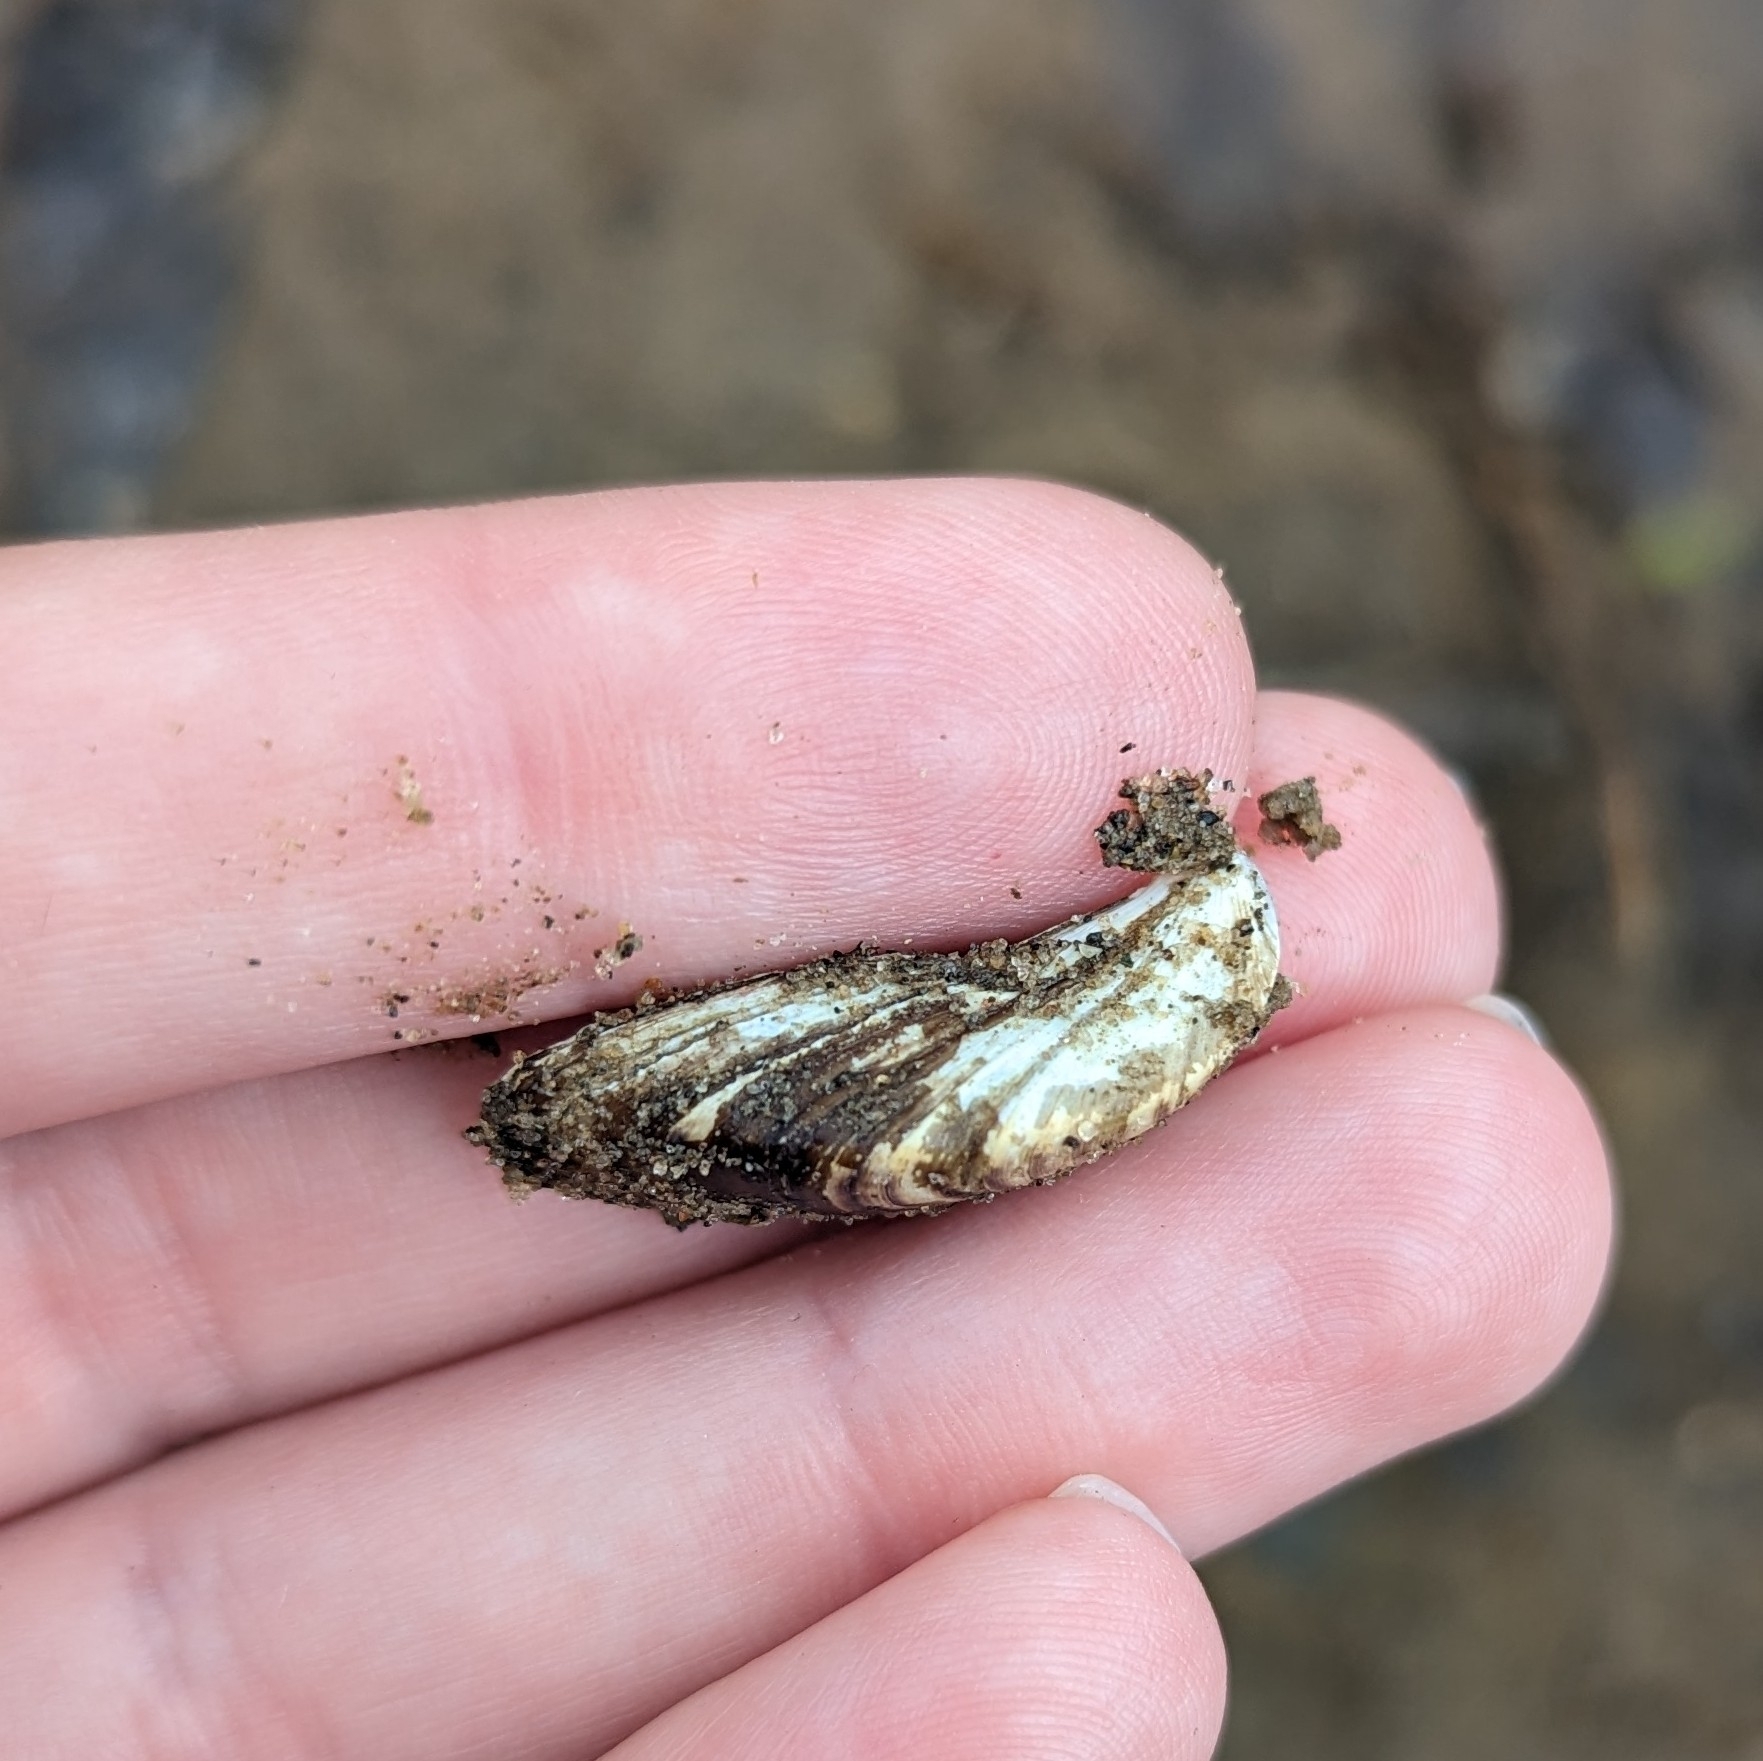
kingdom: Animalia
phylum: Mollusca
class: Bivalvia
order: Myida
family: Dreissenidae
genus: Dreissena
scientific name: Dreissena polymorpha
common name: Zebra mussel
